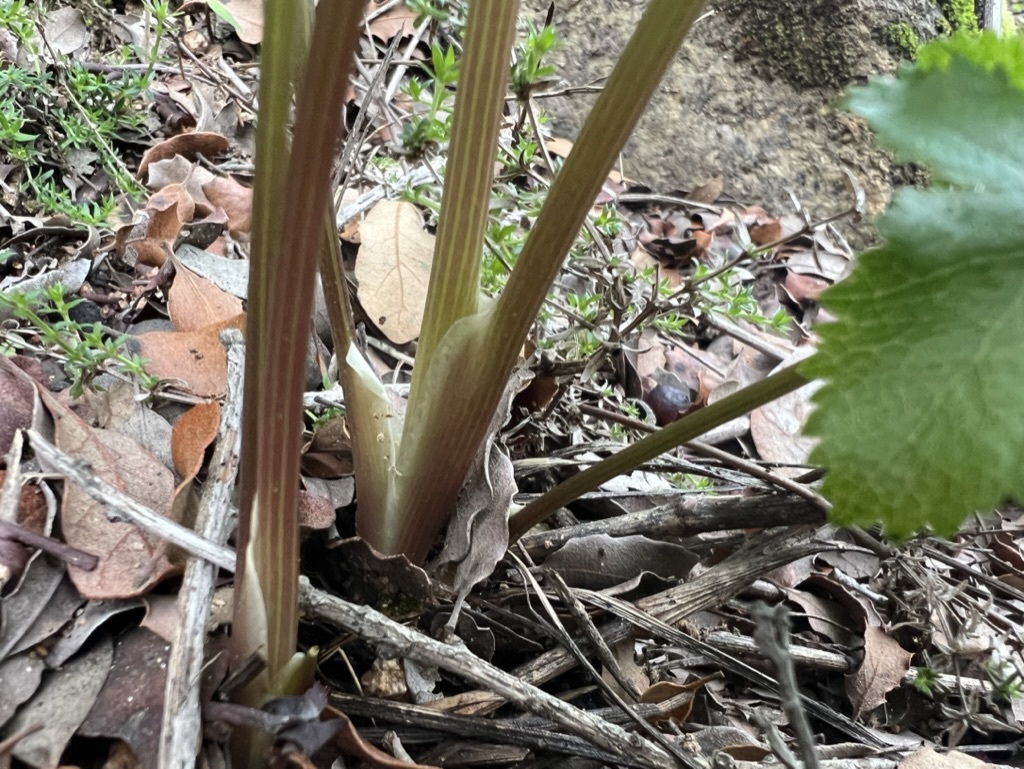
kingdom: Plantae
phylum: Tracheophyta
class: Magnoliopsida
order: Apiales
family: Apiaceae
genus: Tauschia
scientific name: Tauschia arguta
